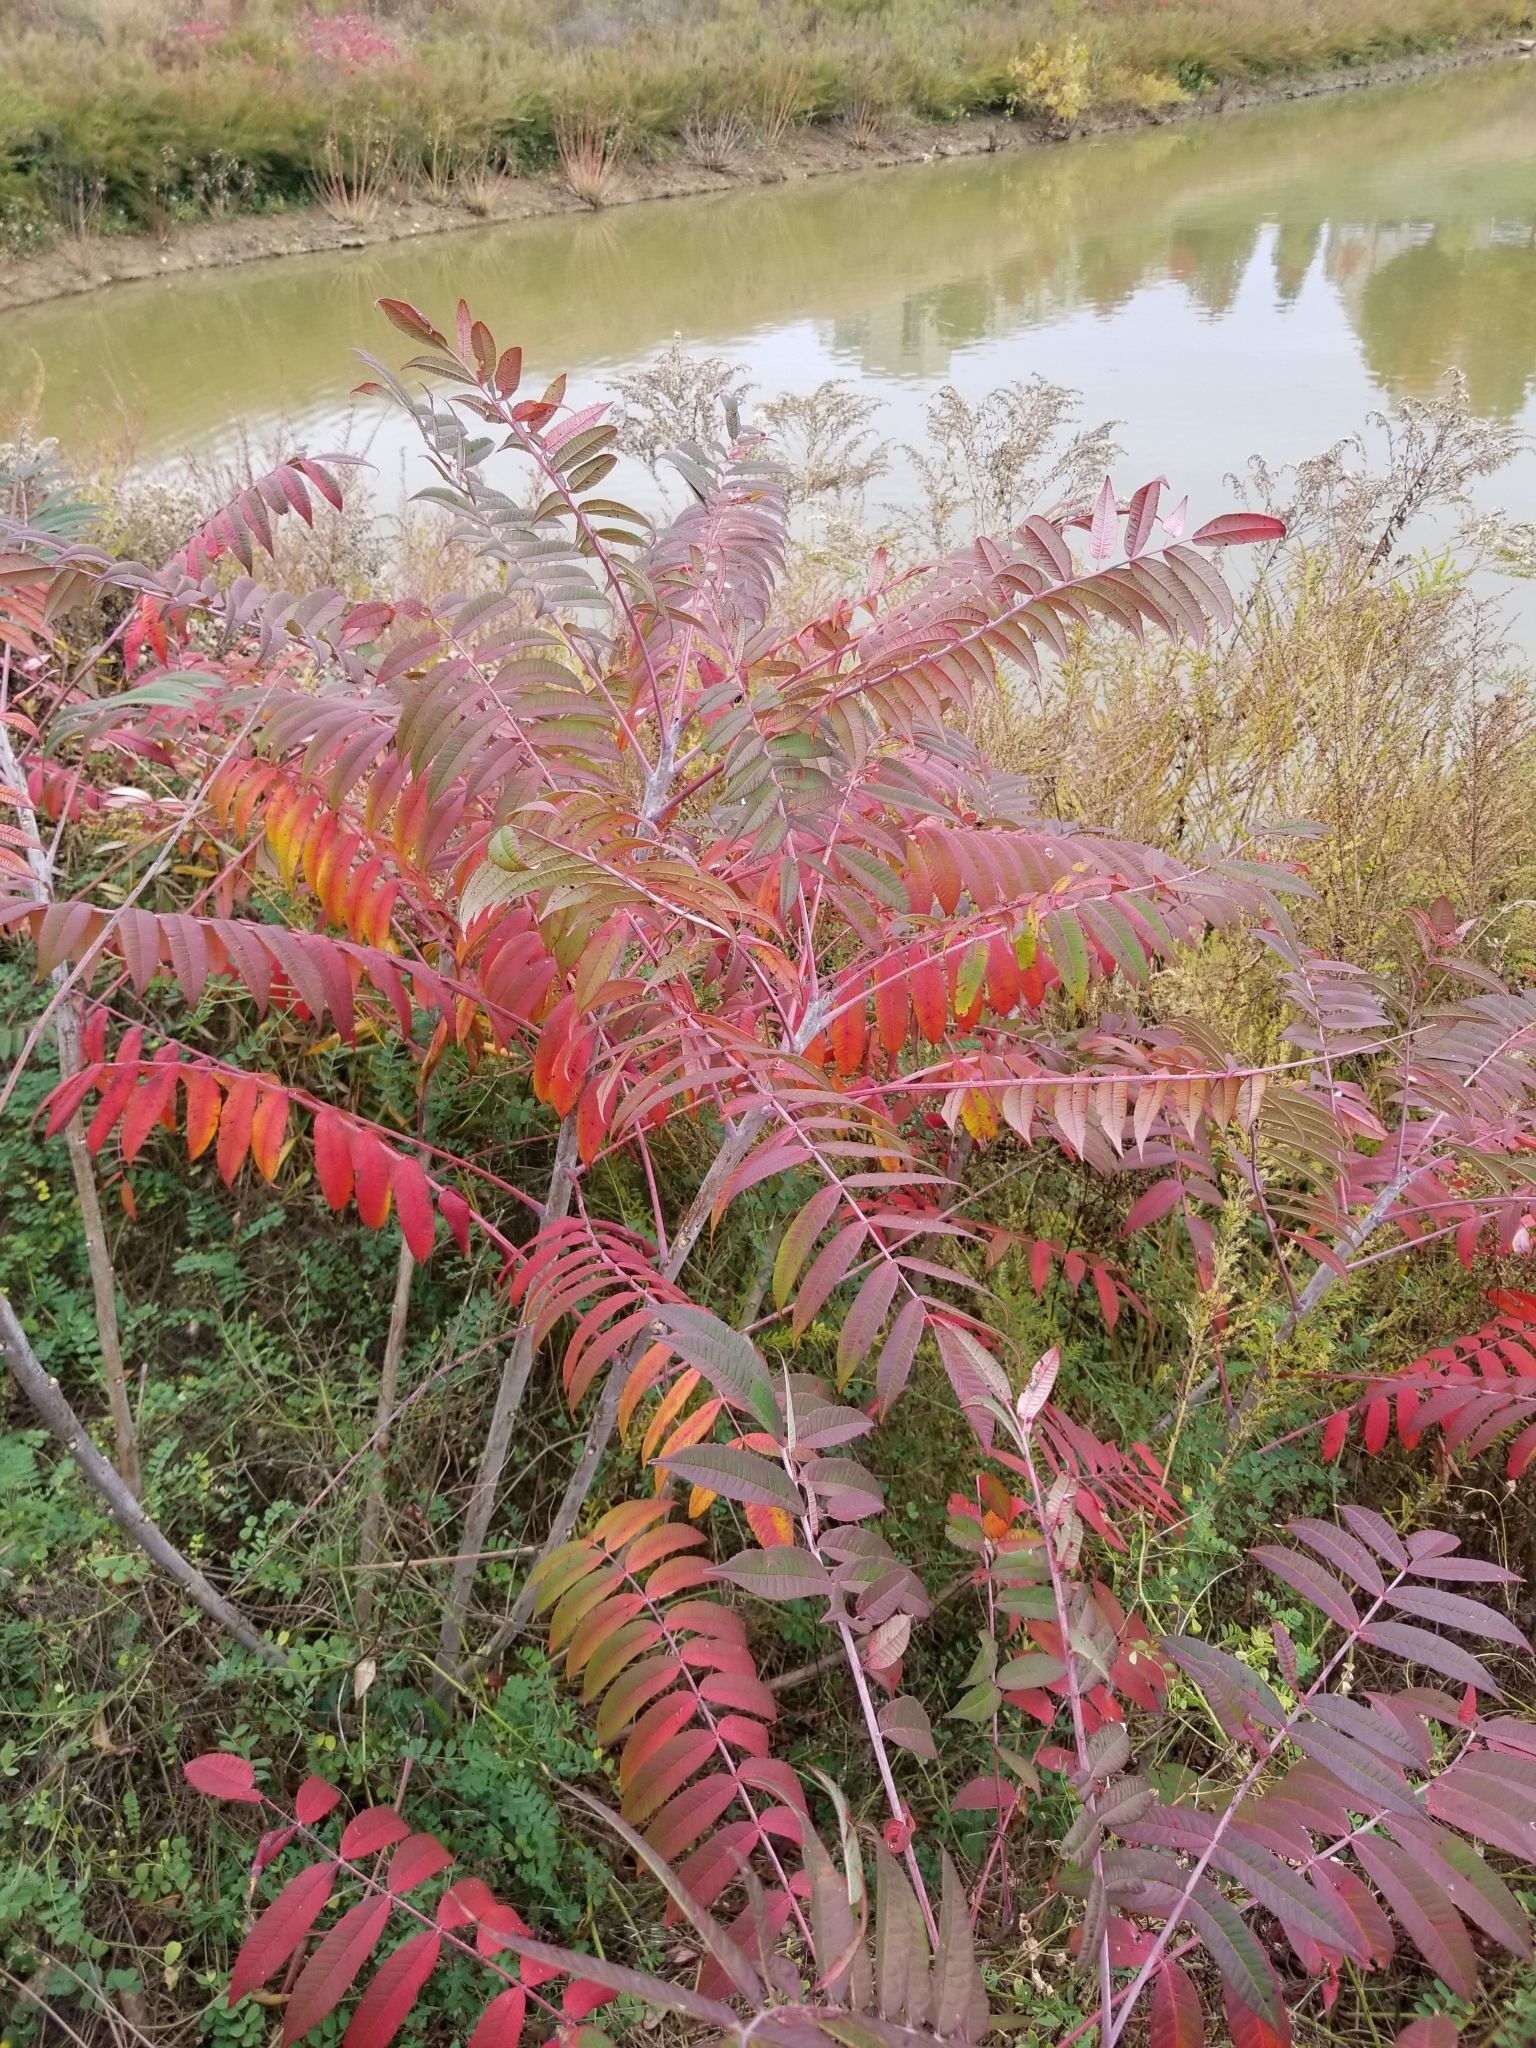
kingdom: Plantae
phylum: Tracheophyta
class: Magnoliopsida
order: Sapindales
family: Anacardiaceae
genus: Rhus
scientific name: Rhus glabra
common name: Scarlet sumac
